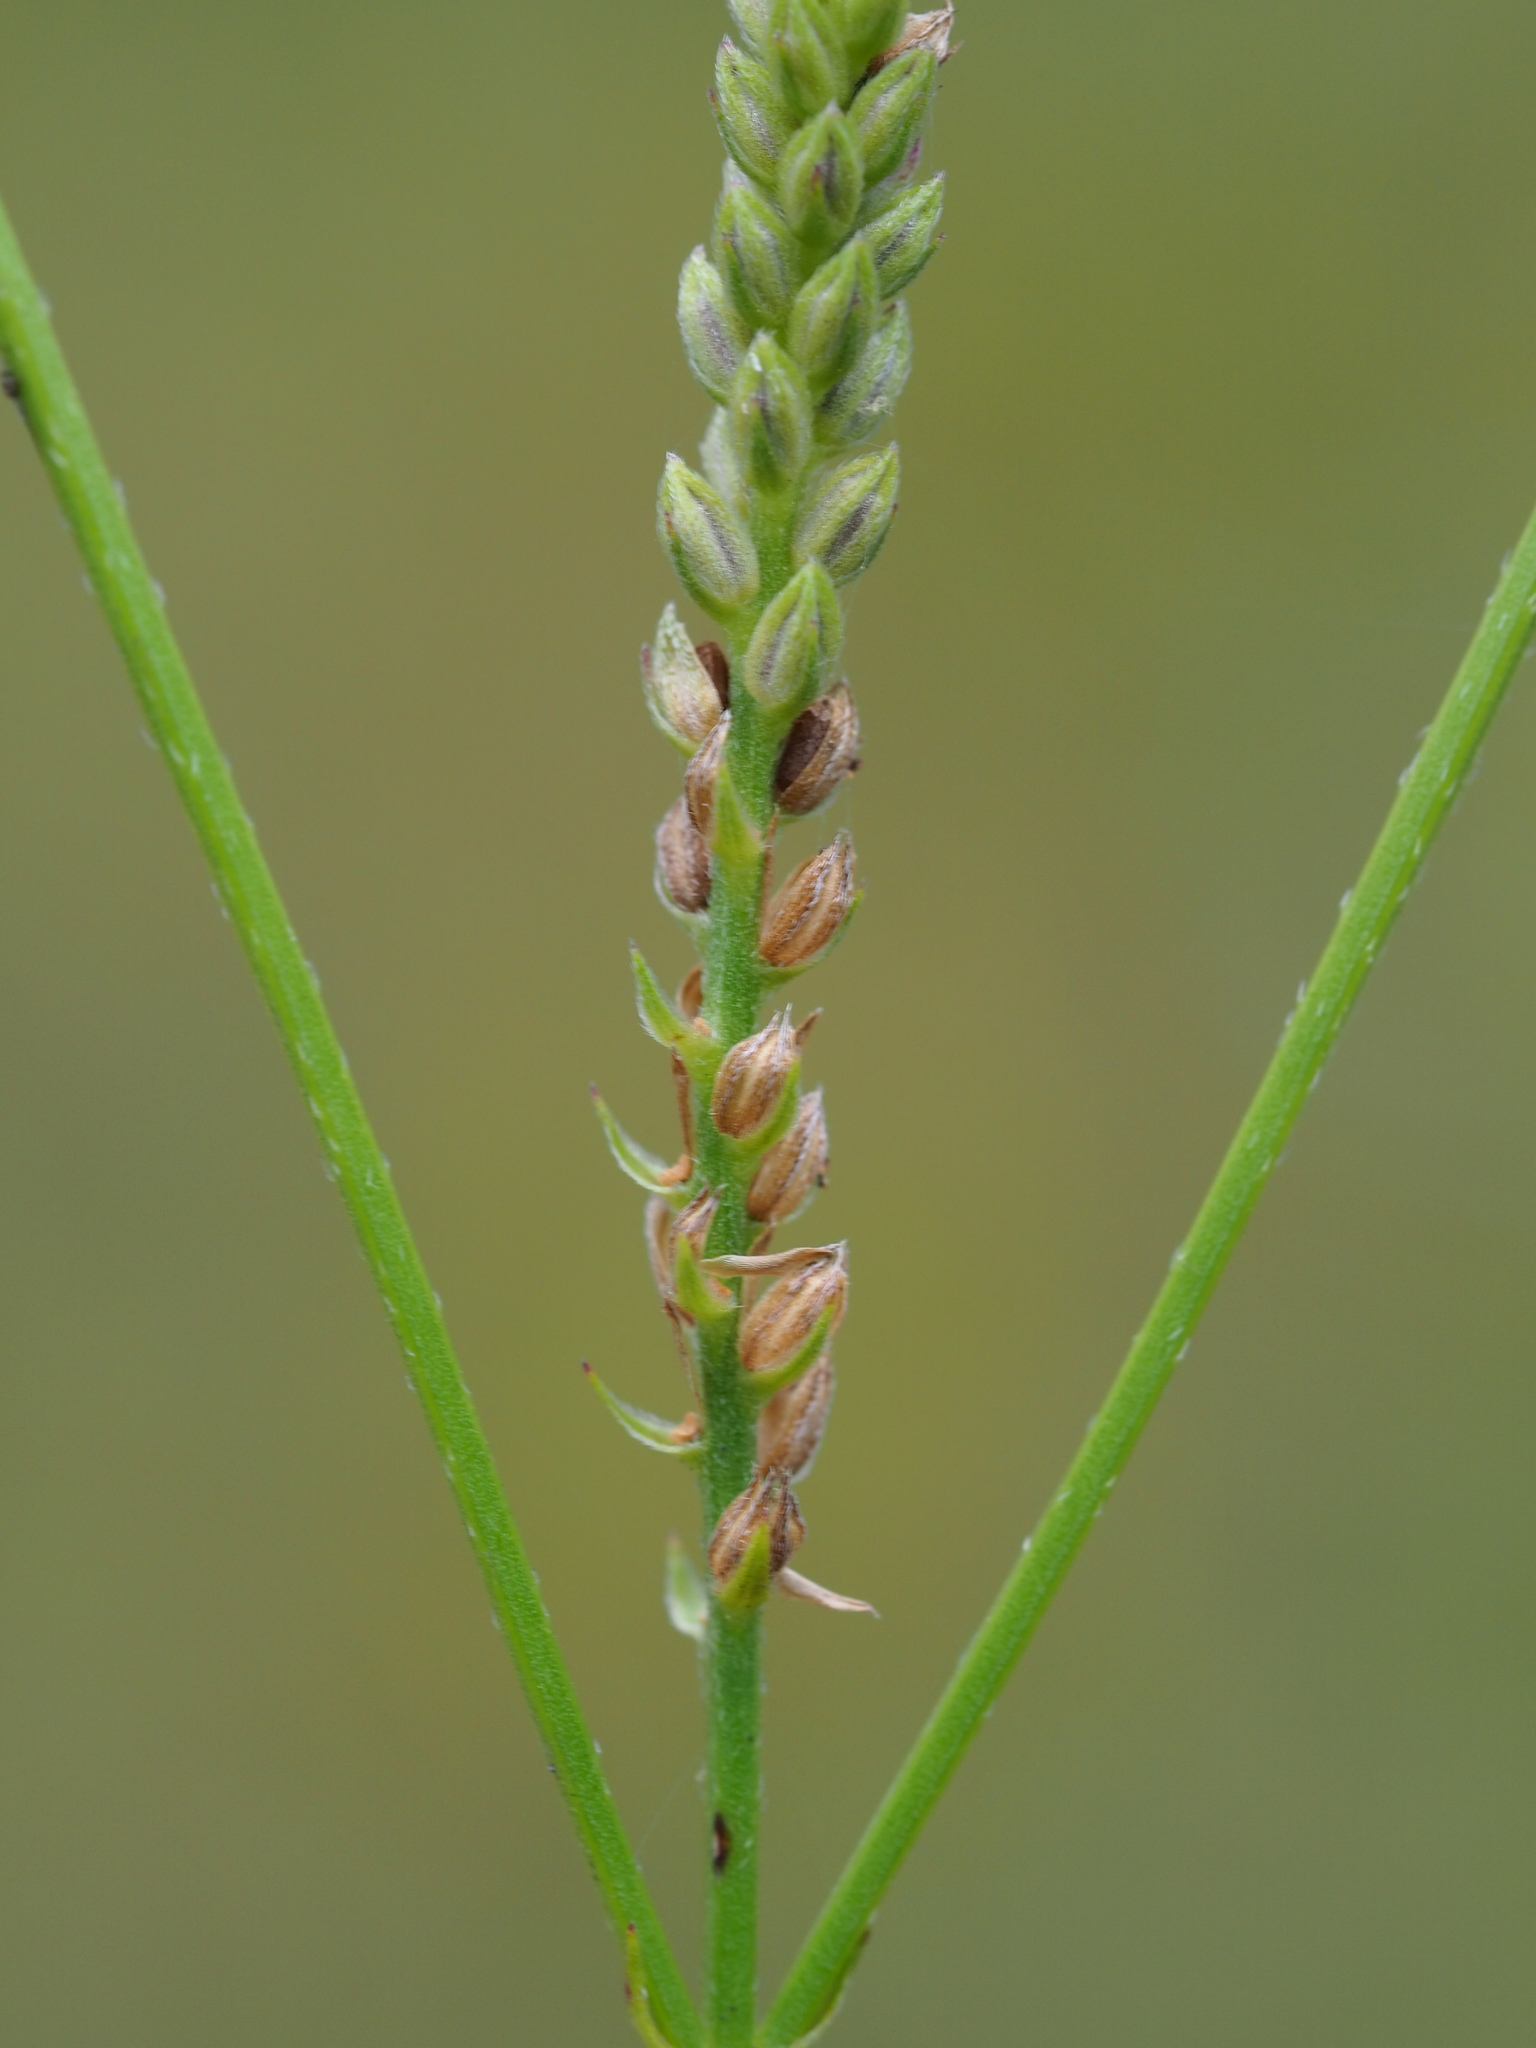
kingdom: Plantae
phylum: Tracheophyta
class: Magnoliopsida
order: Lamiales
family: Verbenaceae
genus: Verbena
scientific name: Verbena officinalis
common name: Vervain
